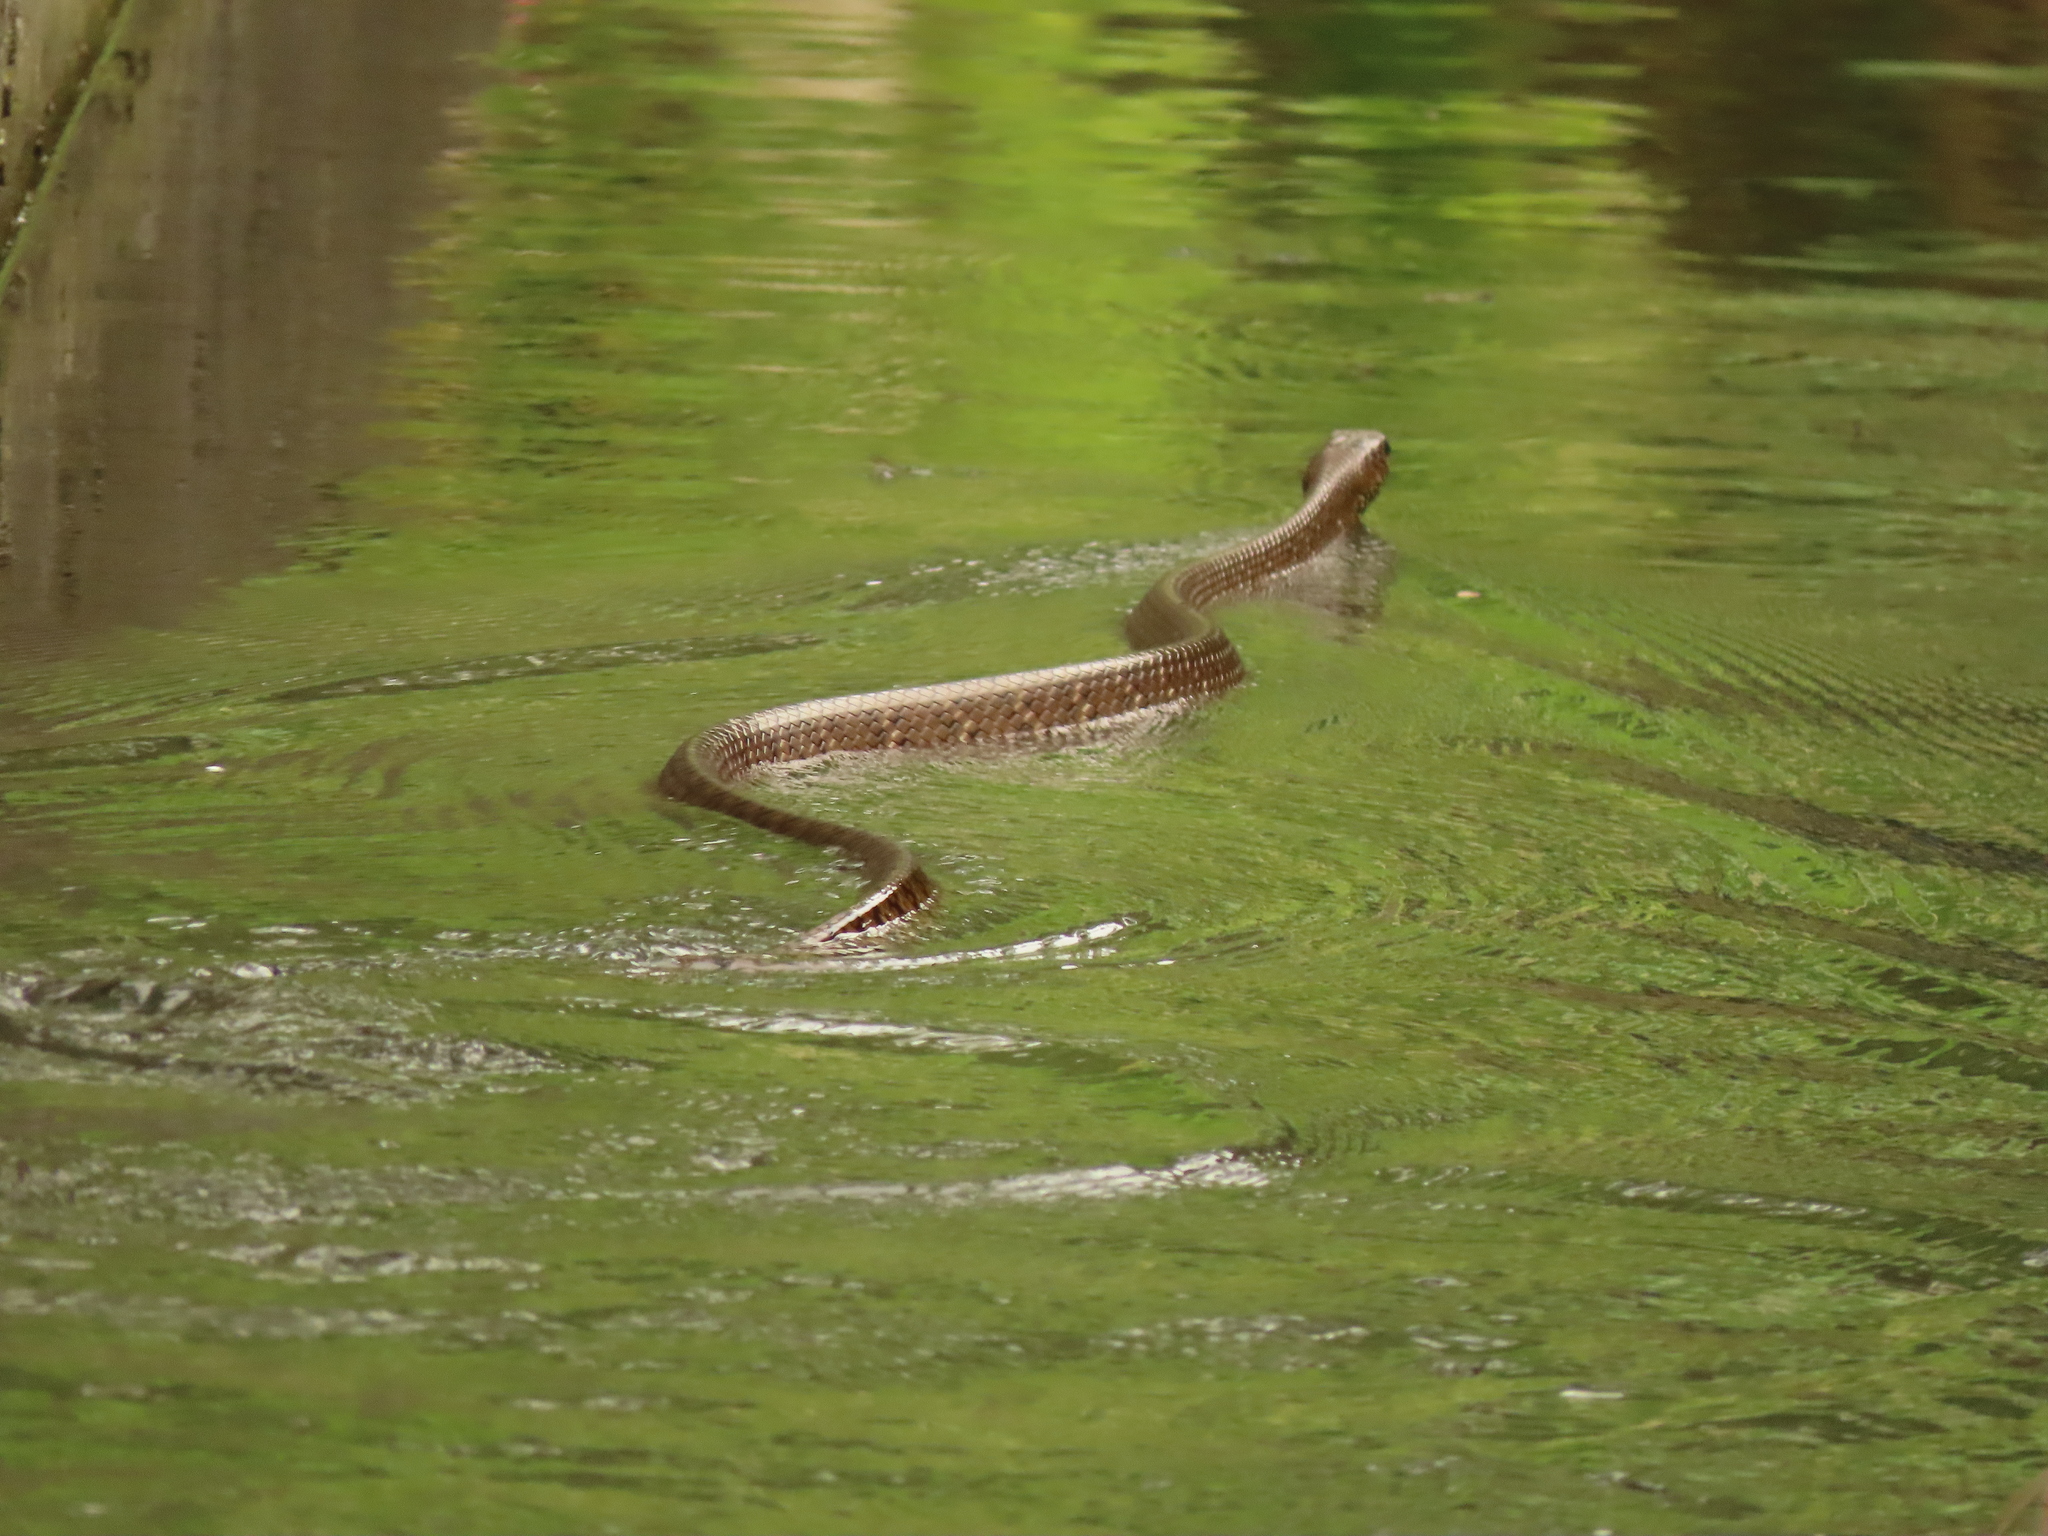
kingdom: Animalia
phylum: Chordata
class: Squamata
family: Colubridae
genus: Ptyas
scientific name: Ptyas mucosa
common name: Oriental ratsnake
